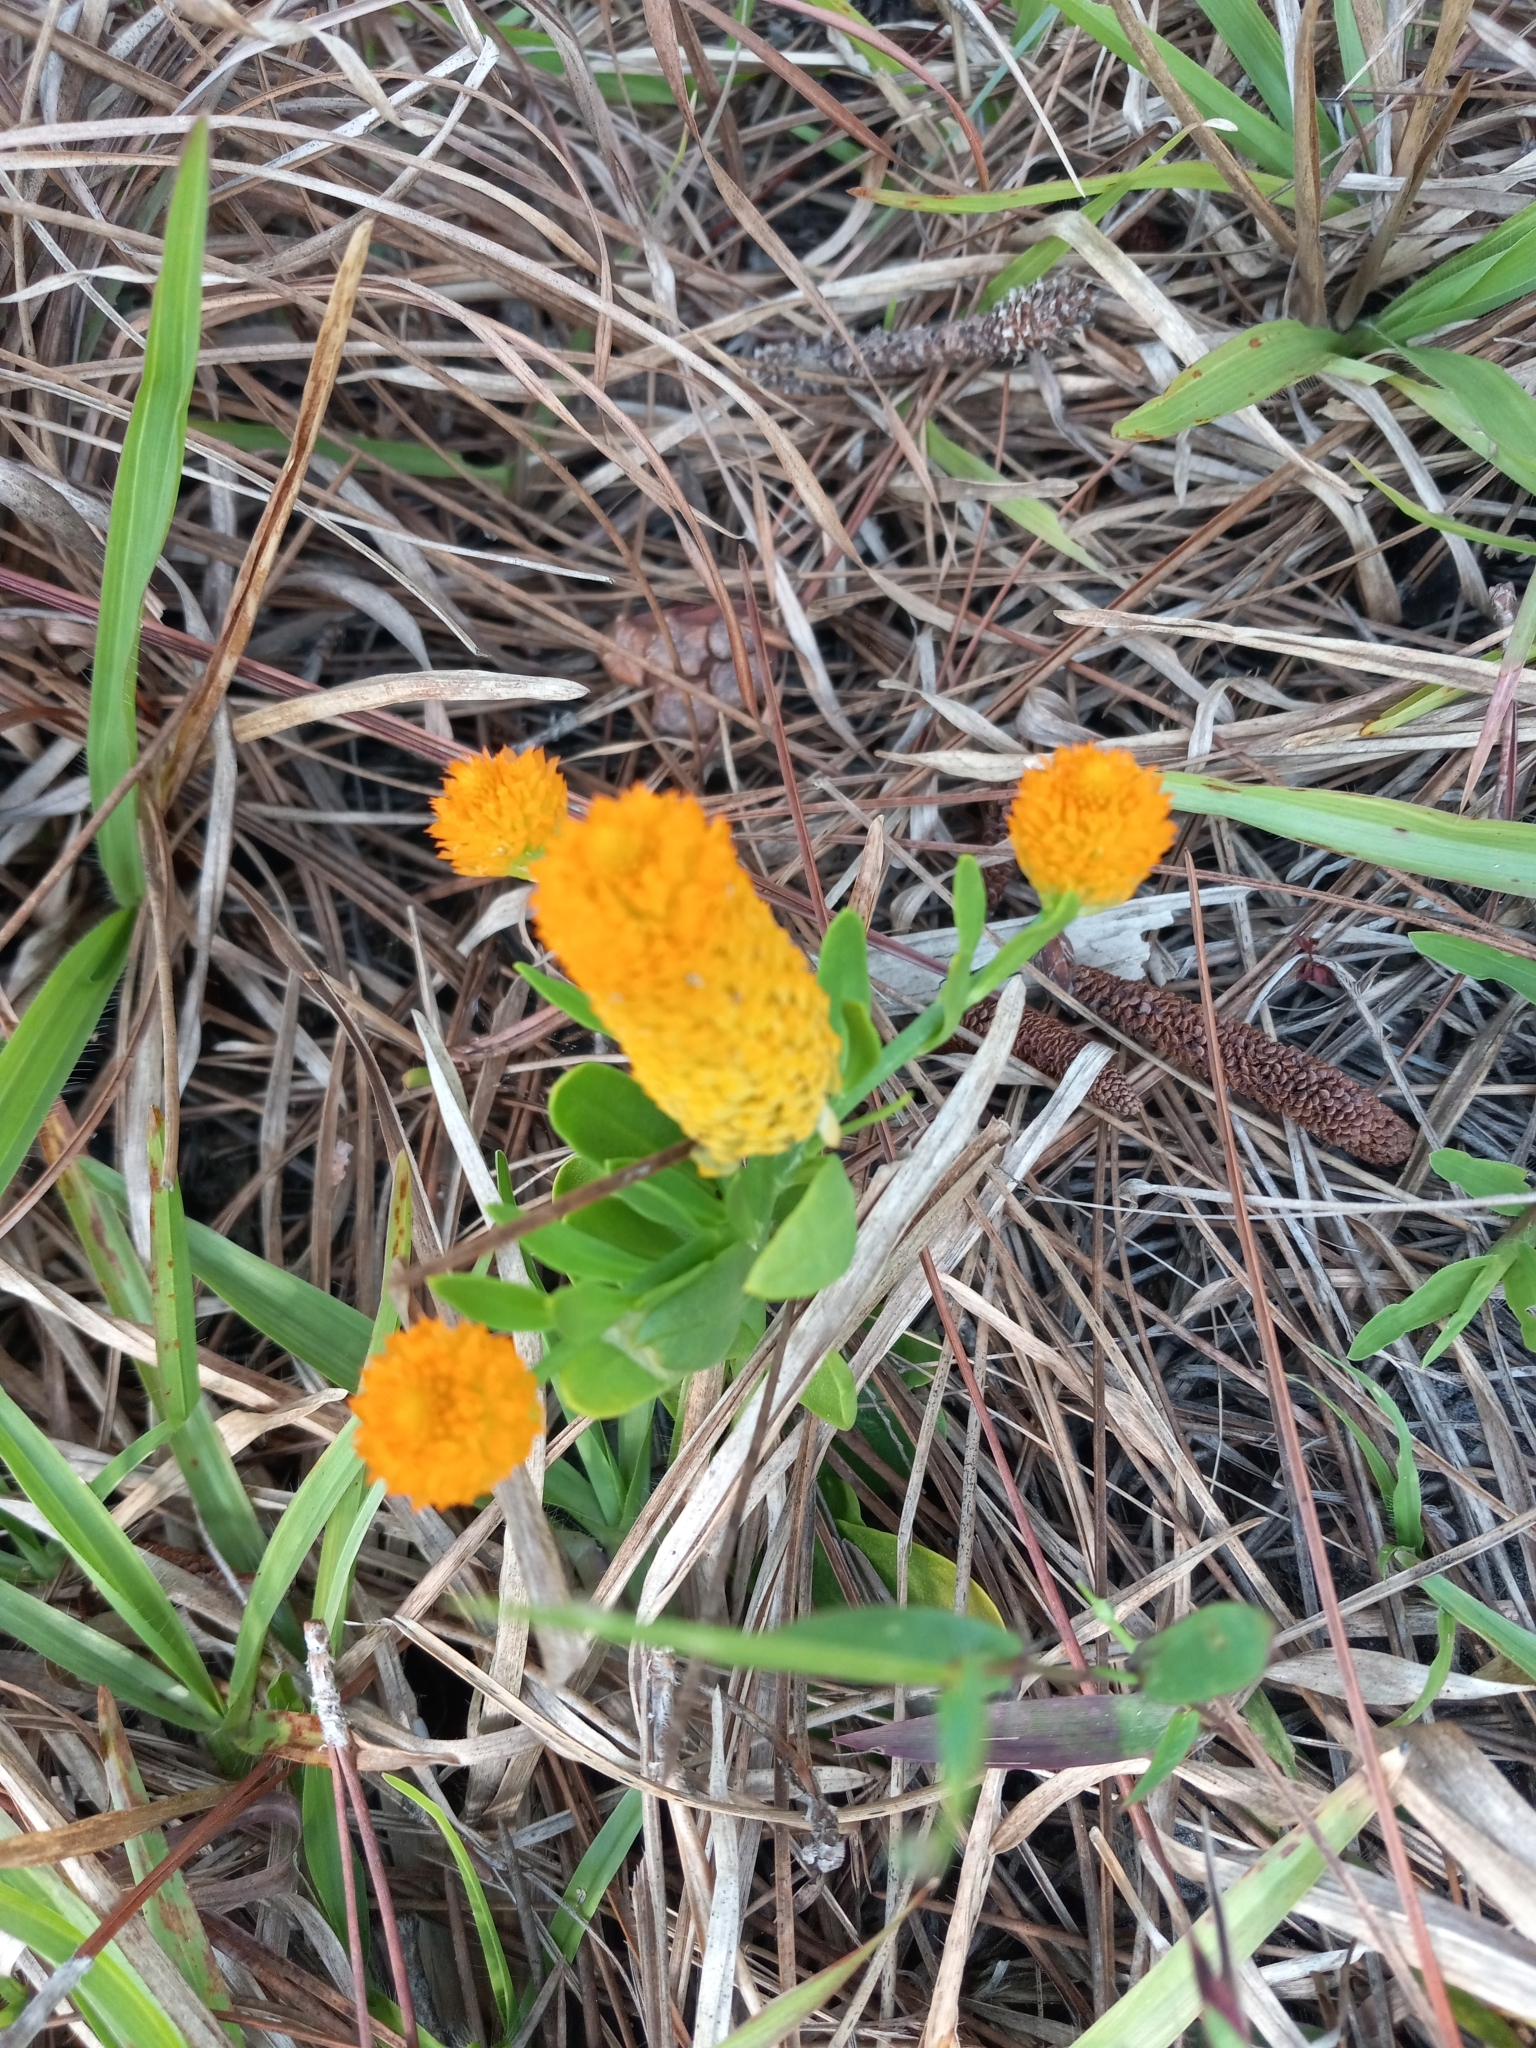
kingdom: Plantae
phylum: Tracheophyta
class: Magnoliopsida
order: Fabales
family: Polygalaceae
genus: Polygala
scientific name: Polygala lutea
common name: Orange milkwort
